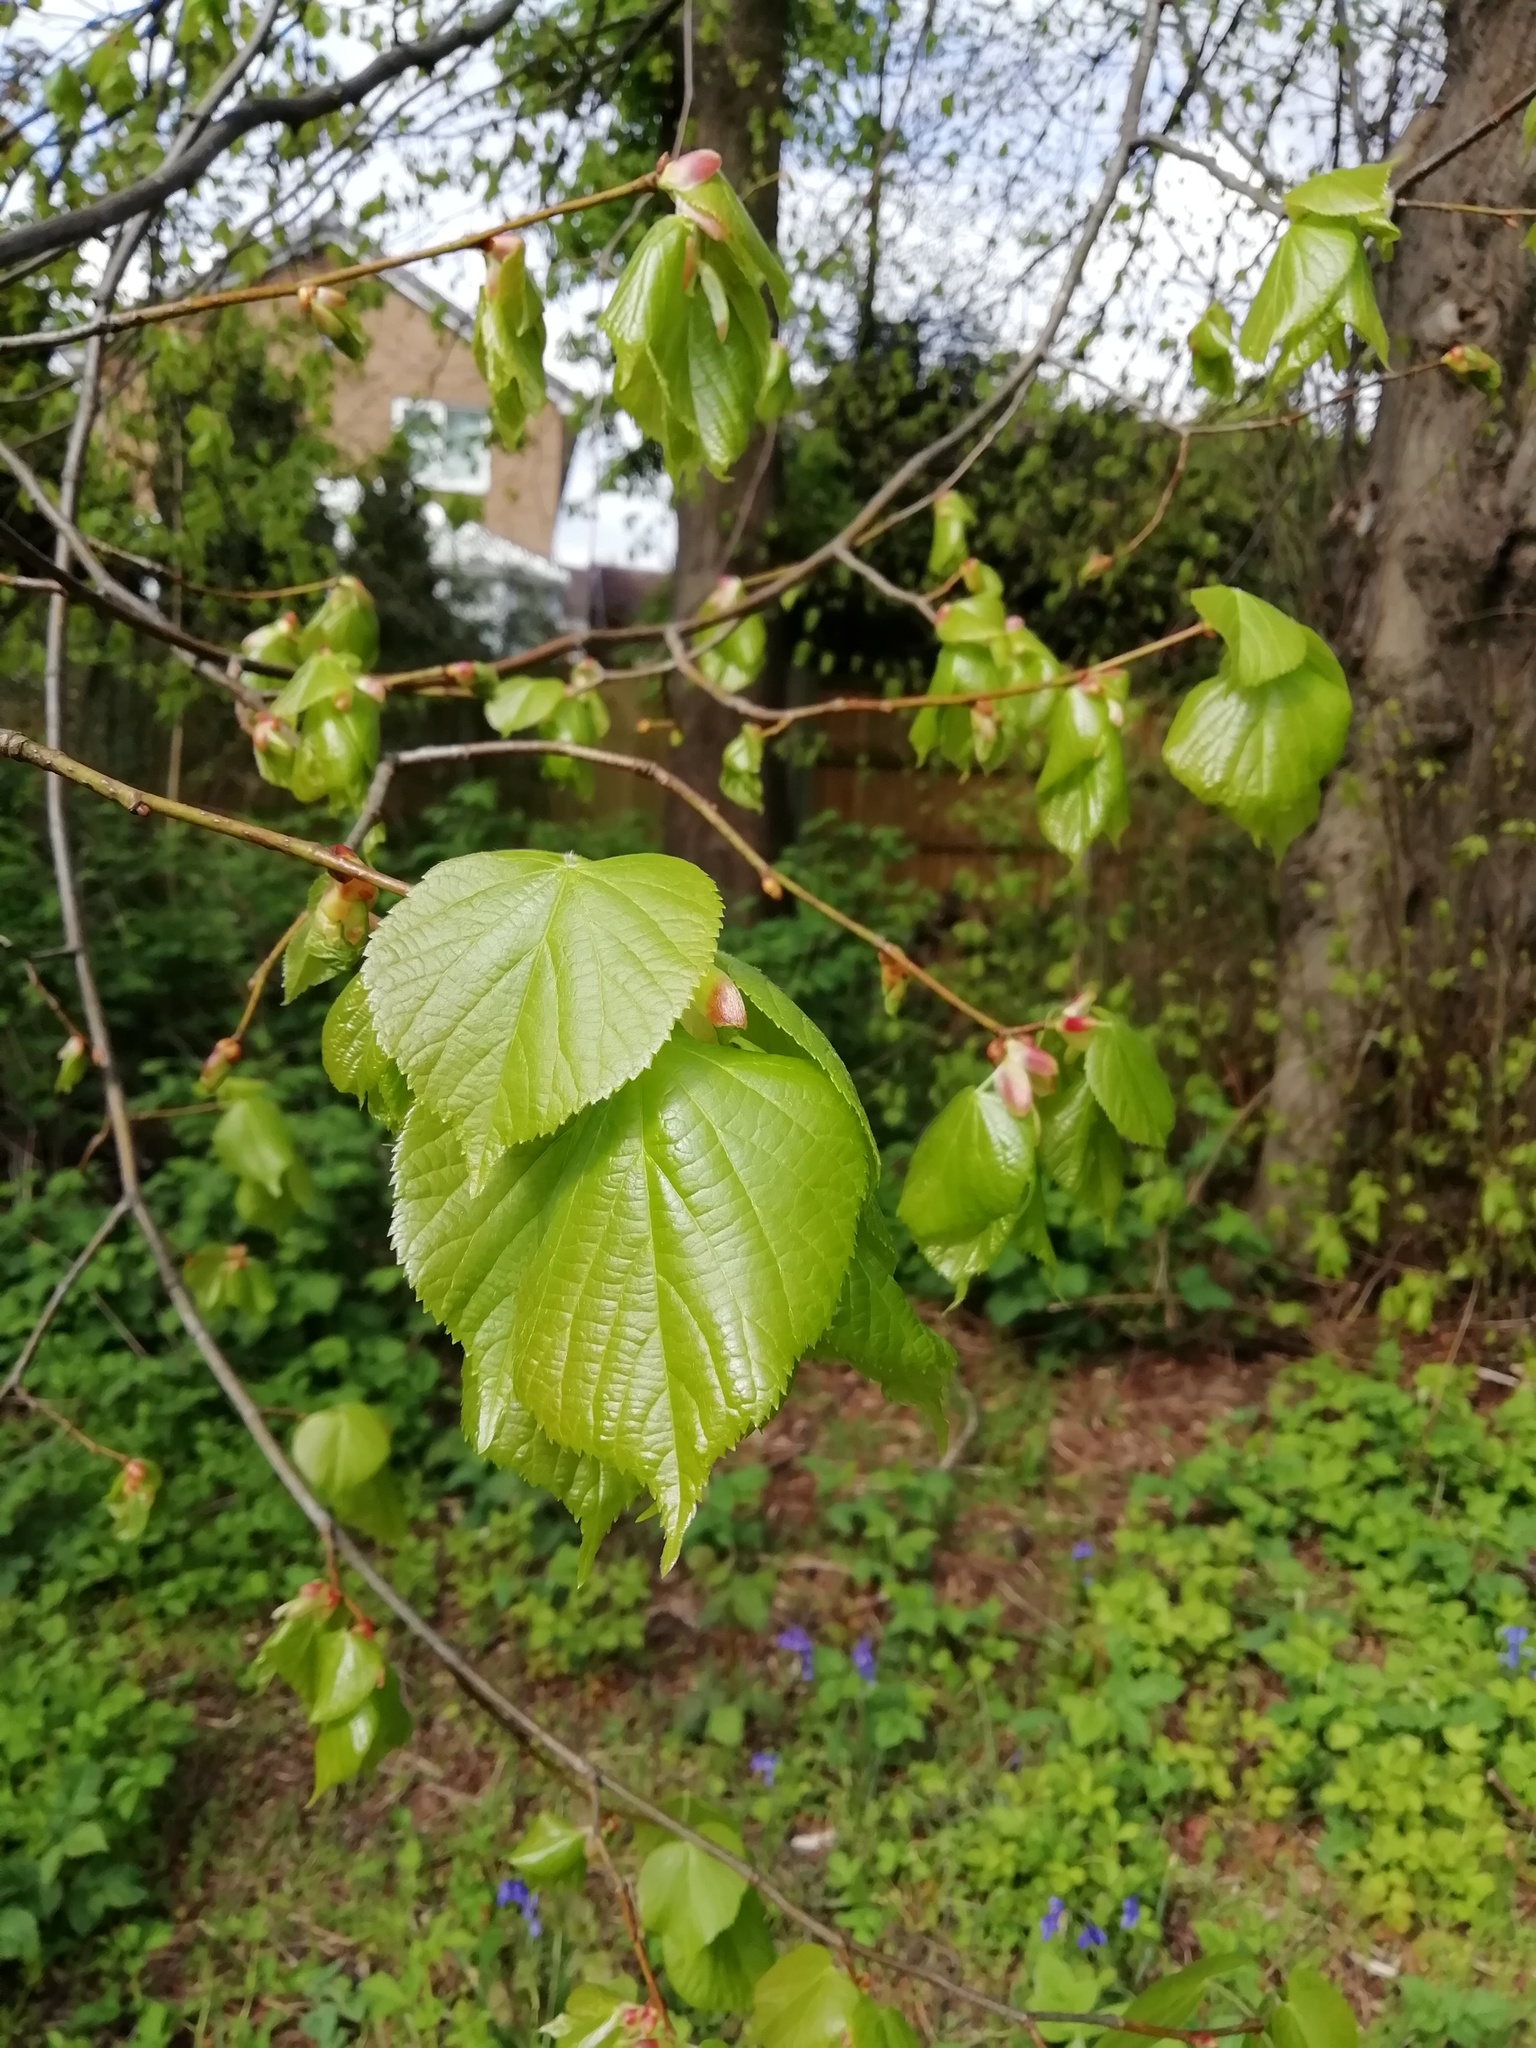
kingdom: Plantae
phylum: Tracheophyta
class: Magnoliopsida
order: Malvales
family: Malvaceae
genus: Tilia
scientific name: Tilia europaea
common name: European linden
